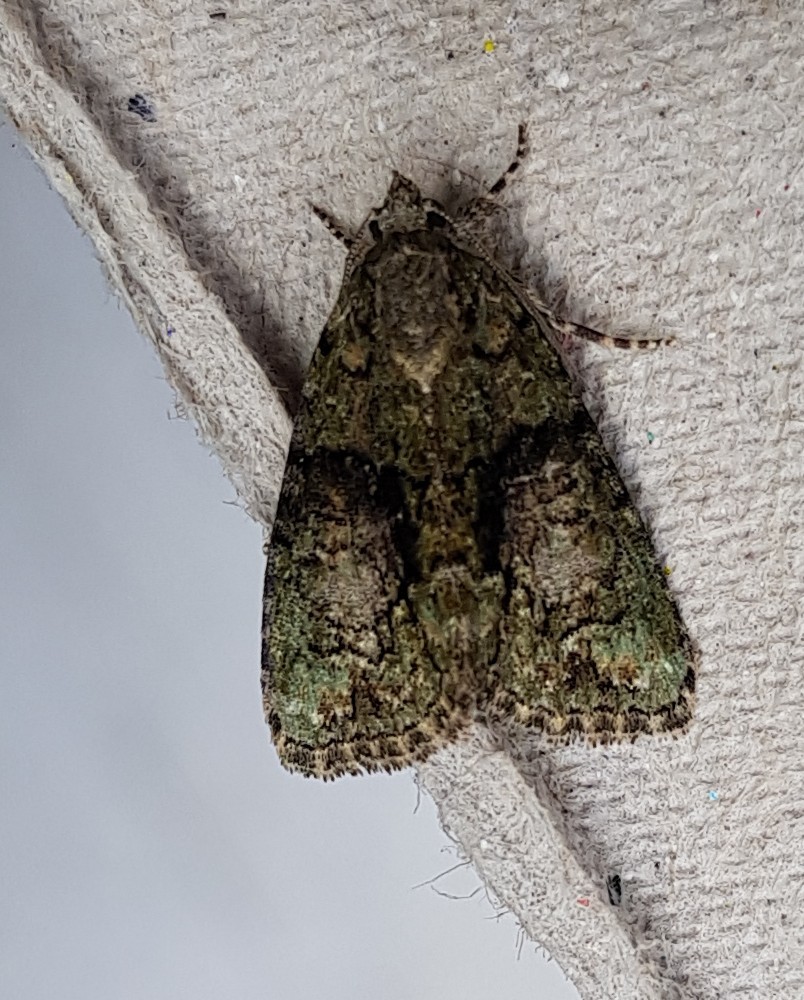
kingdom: Animalia
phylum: Arthropoda
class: Insecta
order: Lepidoptera
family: Noctuidae
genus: Cryphia
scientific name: Cryphia algae
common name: Tree-lichen beauty
